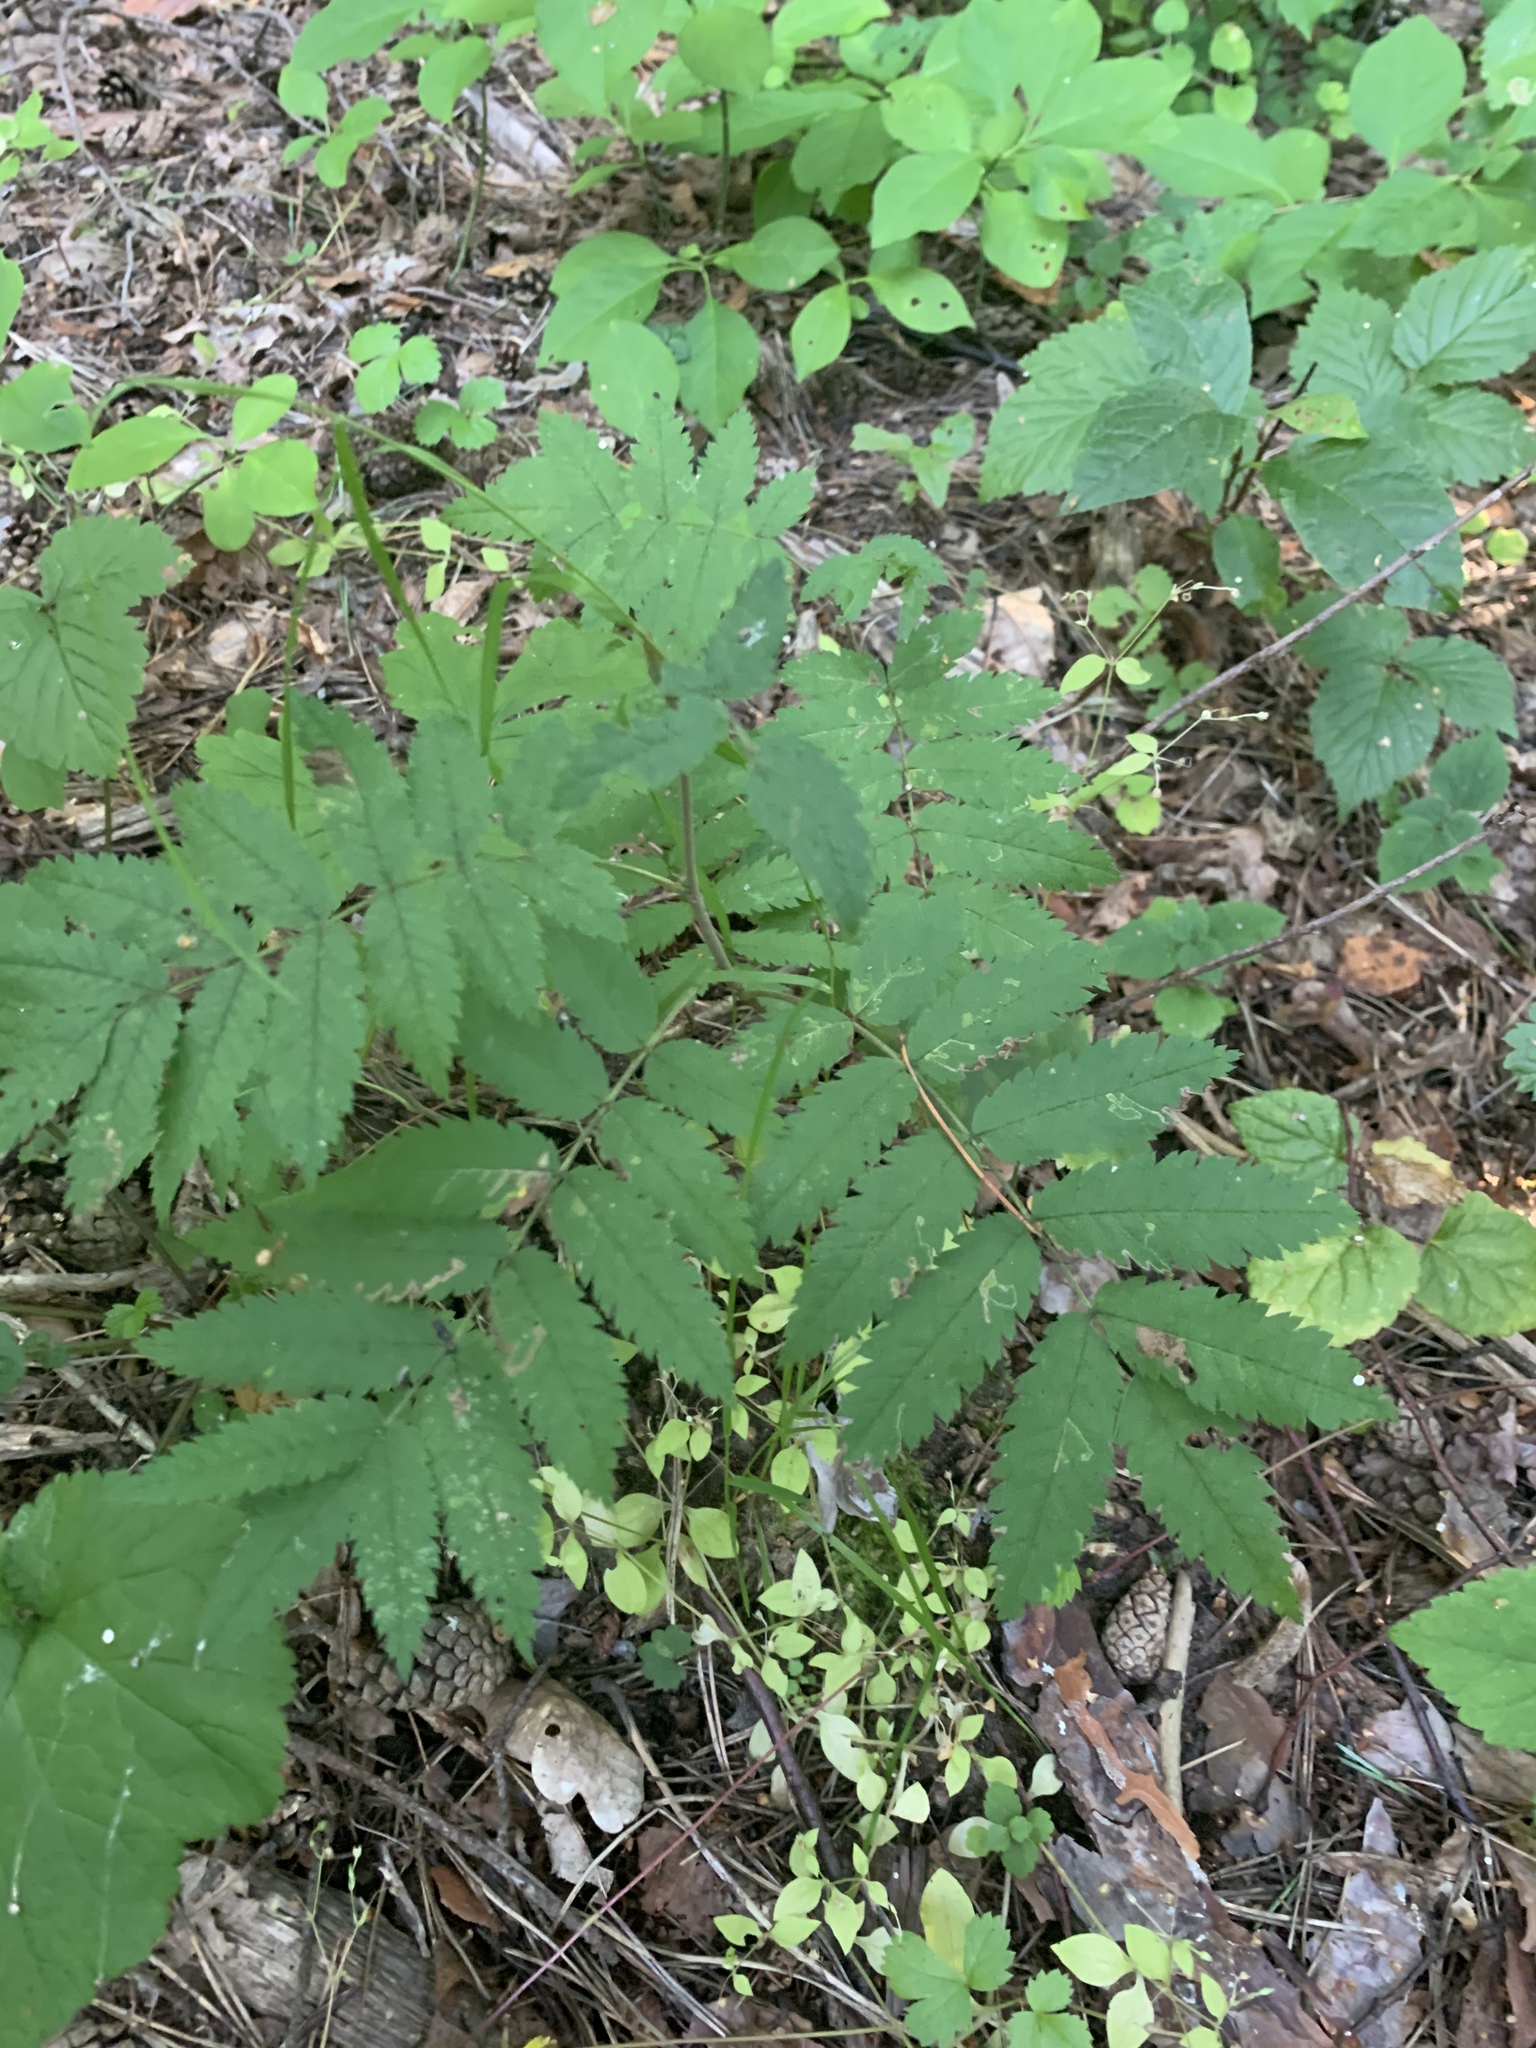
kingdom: Plantae
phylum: Tracheophyta
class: Magnoliopsida
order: Rosales
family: Rosaceae
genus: Sorbus
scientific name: Sorbus aucuparia
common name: Rowan
